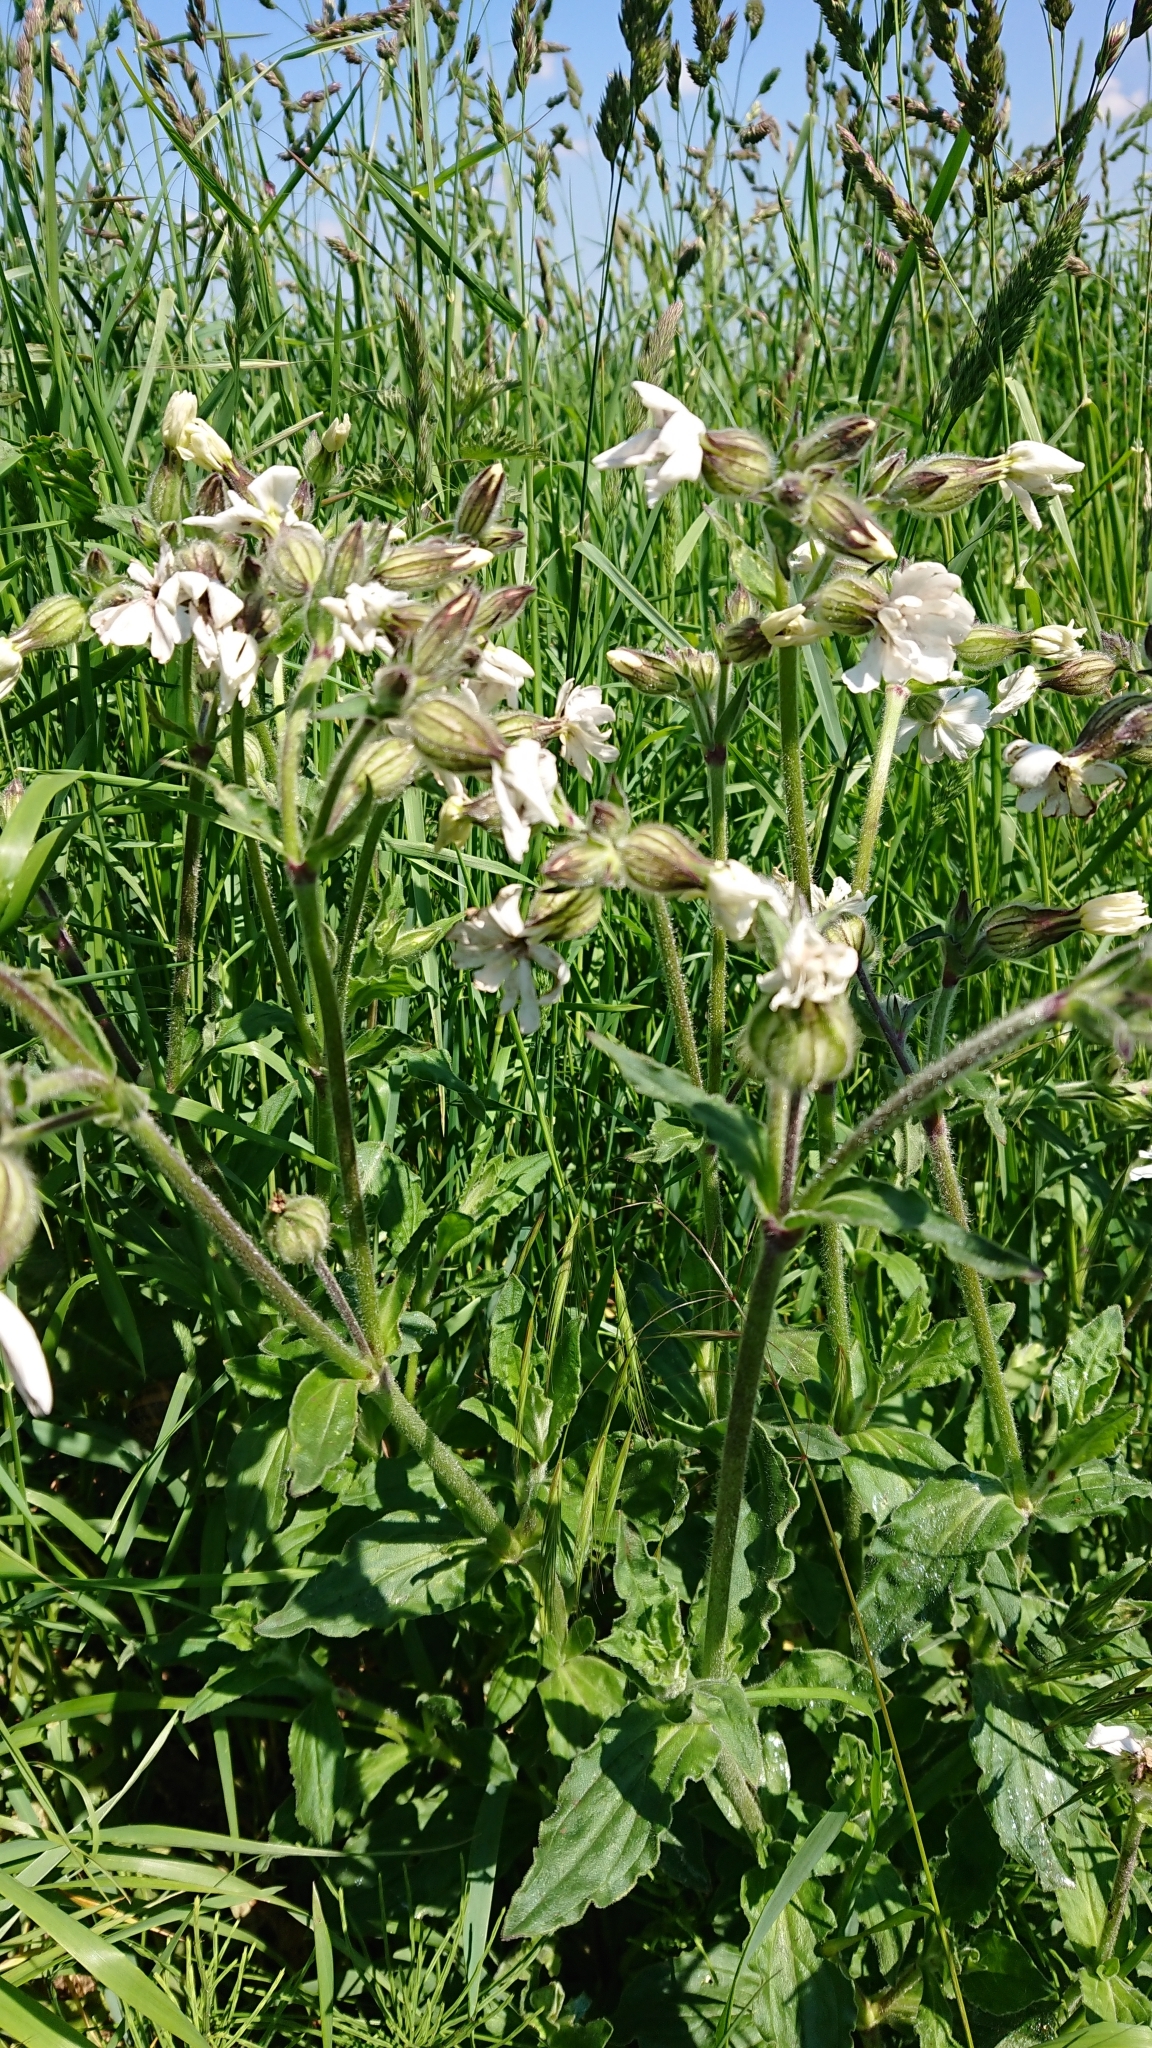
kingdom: Plantae
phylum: Tracheophyta
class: Magnoliopsida
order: Caryophyllales
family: Caryophyllaceae
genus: Silene
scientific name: Silene latifolia
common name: White campion
